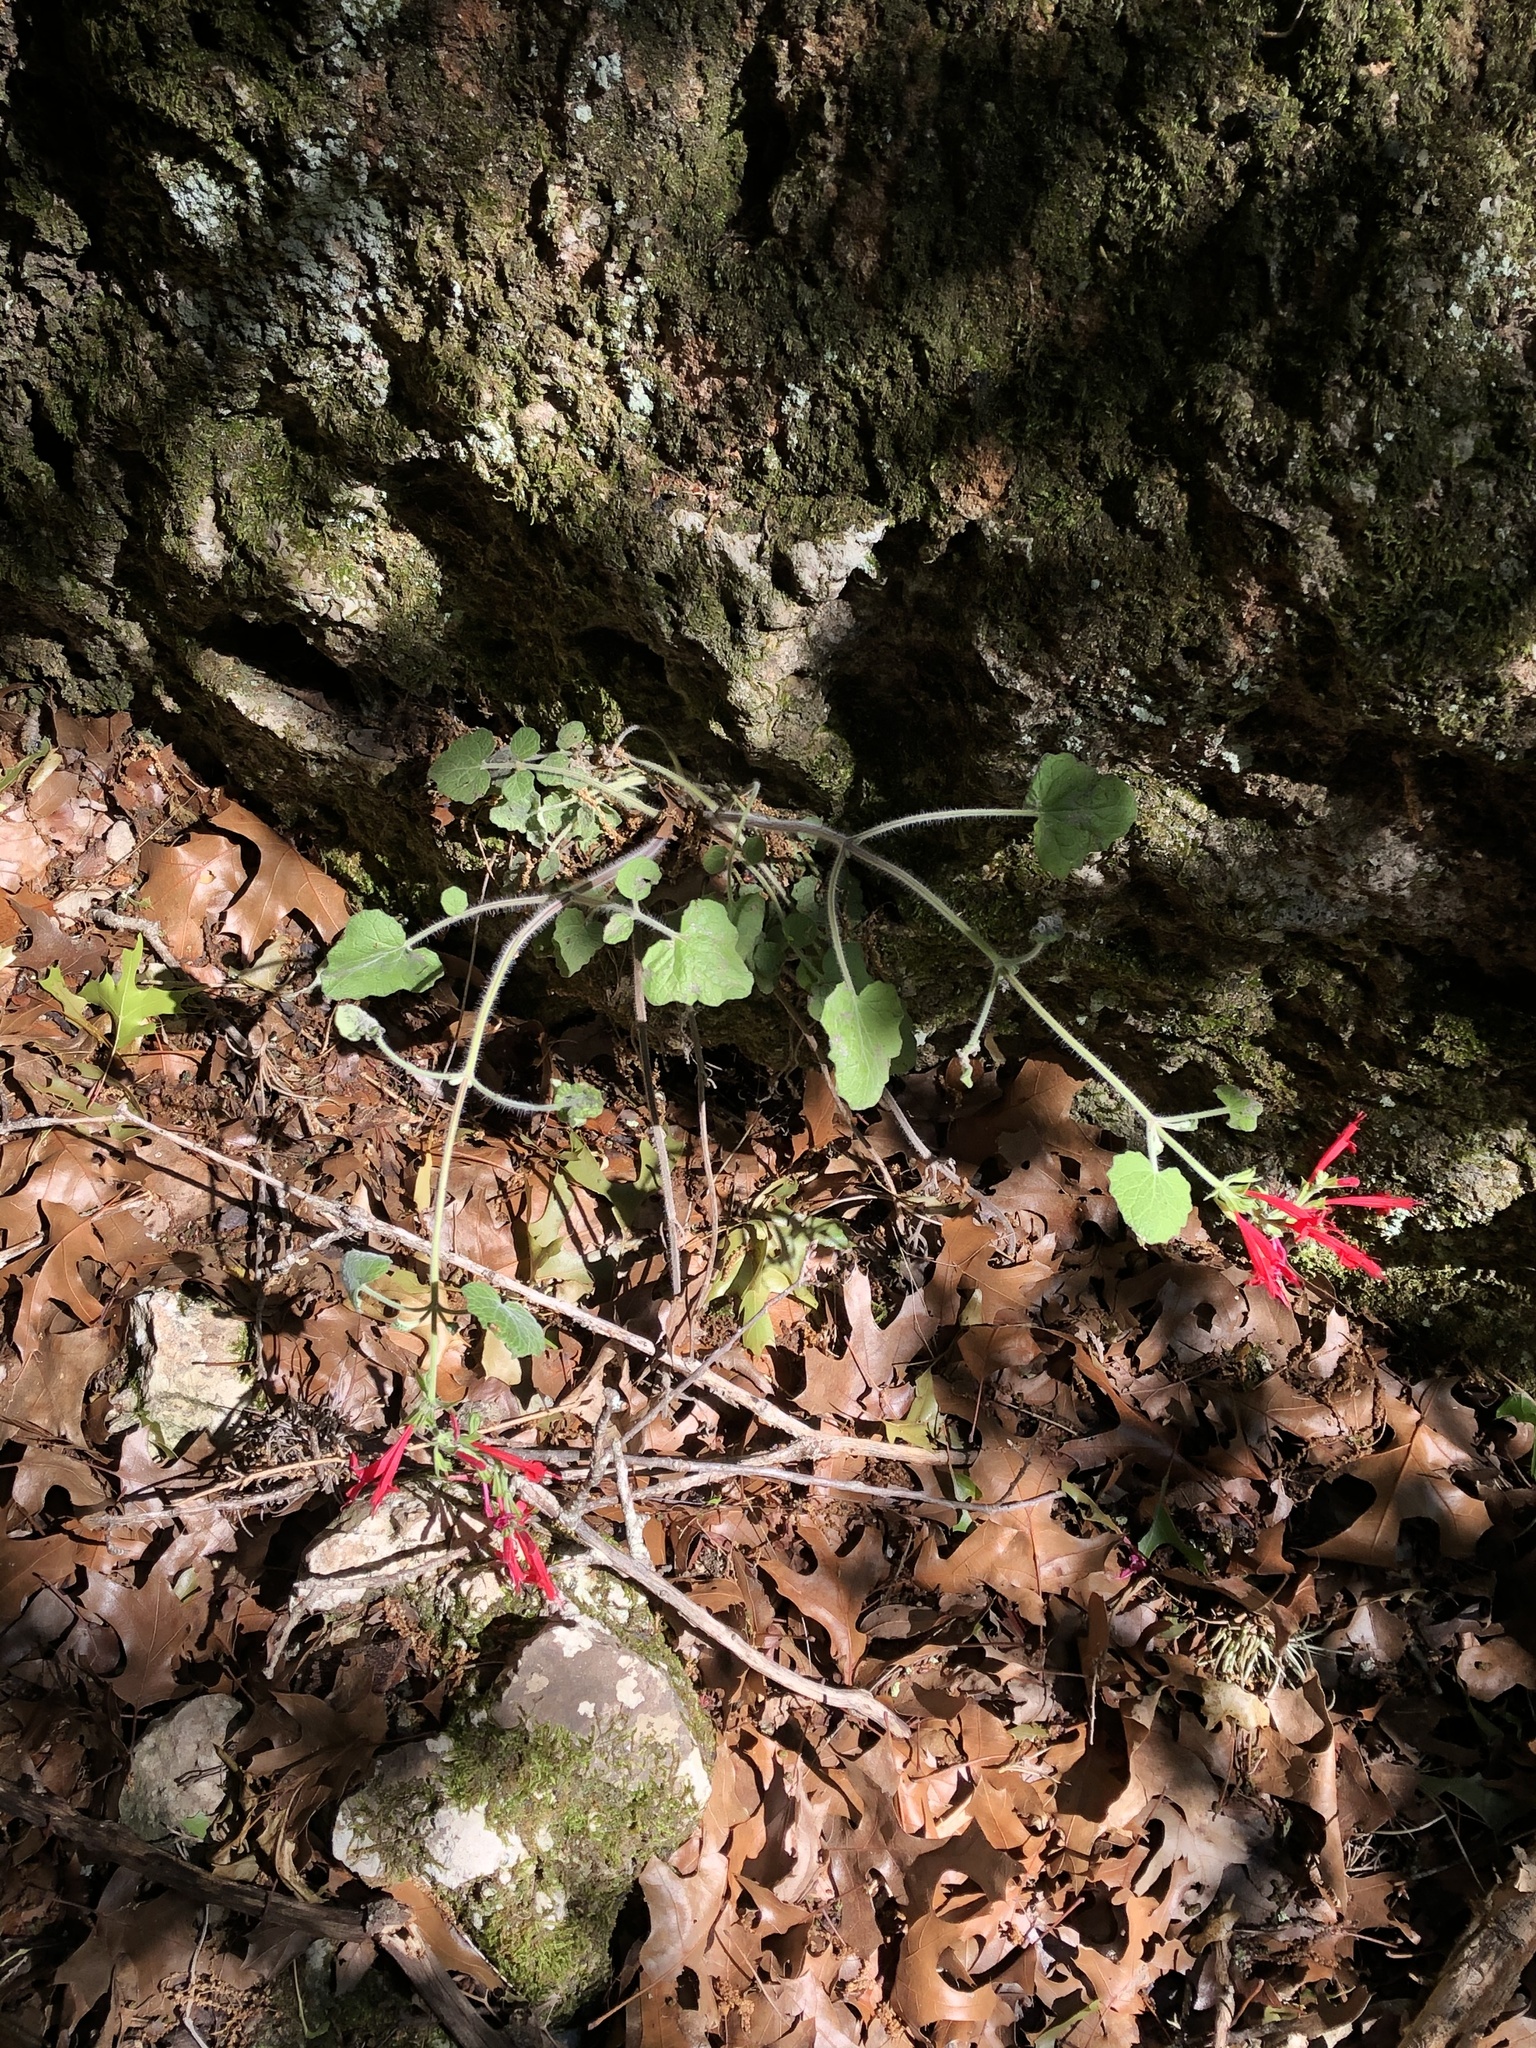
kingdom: Plantae
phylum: Tracheophyta
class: Magnoliopsida
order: Lamiales
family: Lamiaceae
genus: Salvia
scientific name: Salvia roemeriana
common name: Cedar sage
